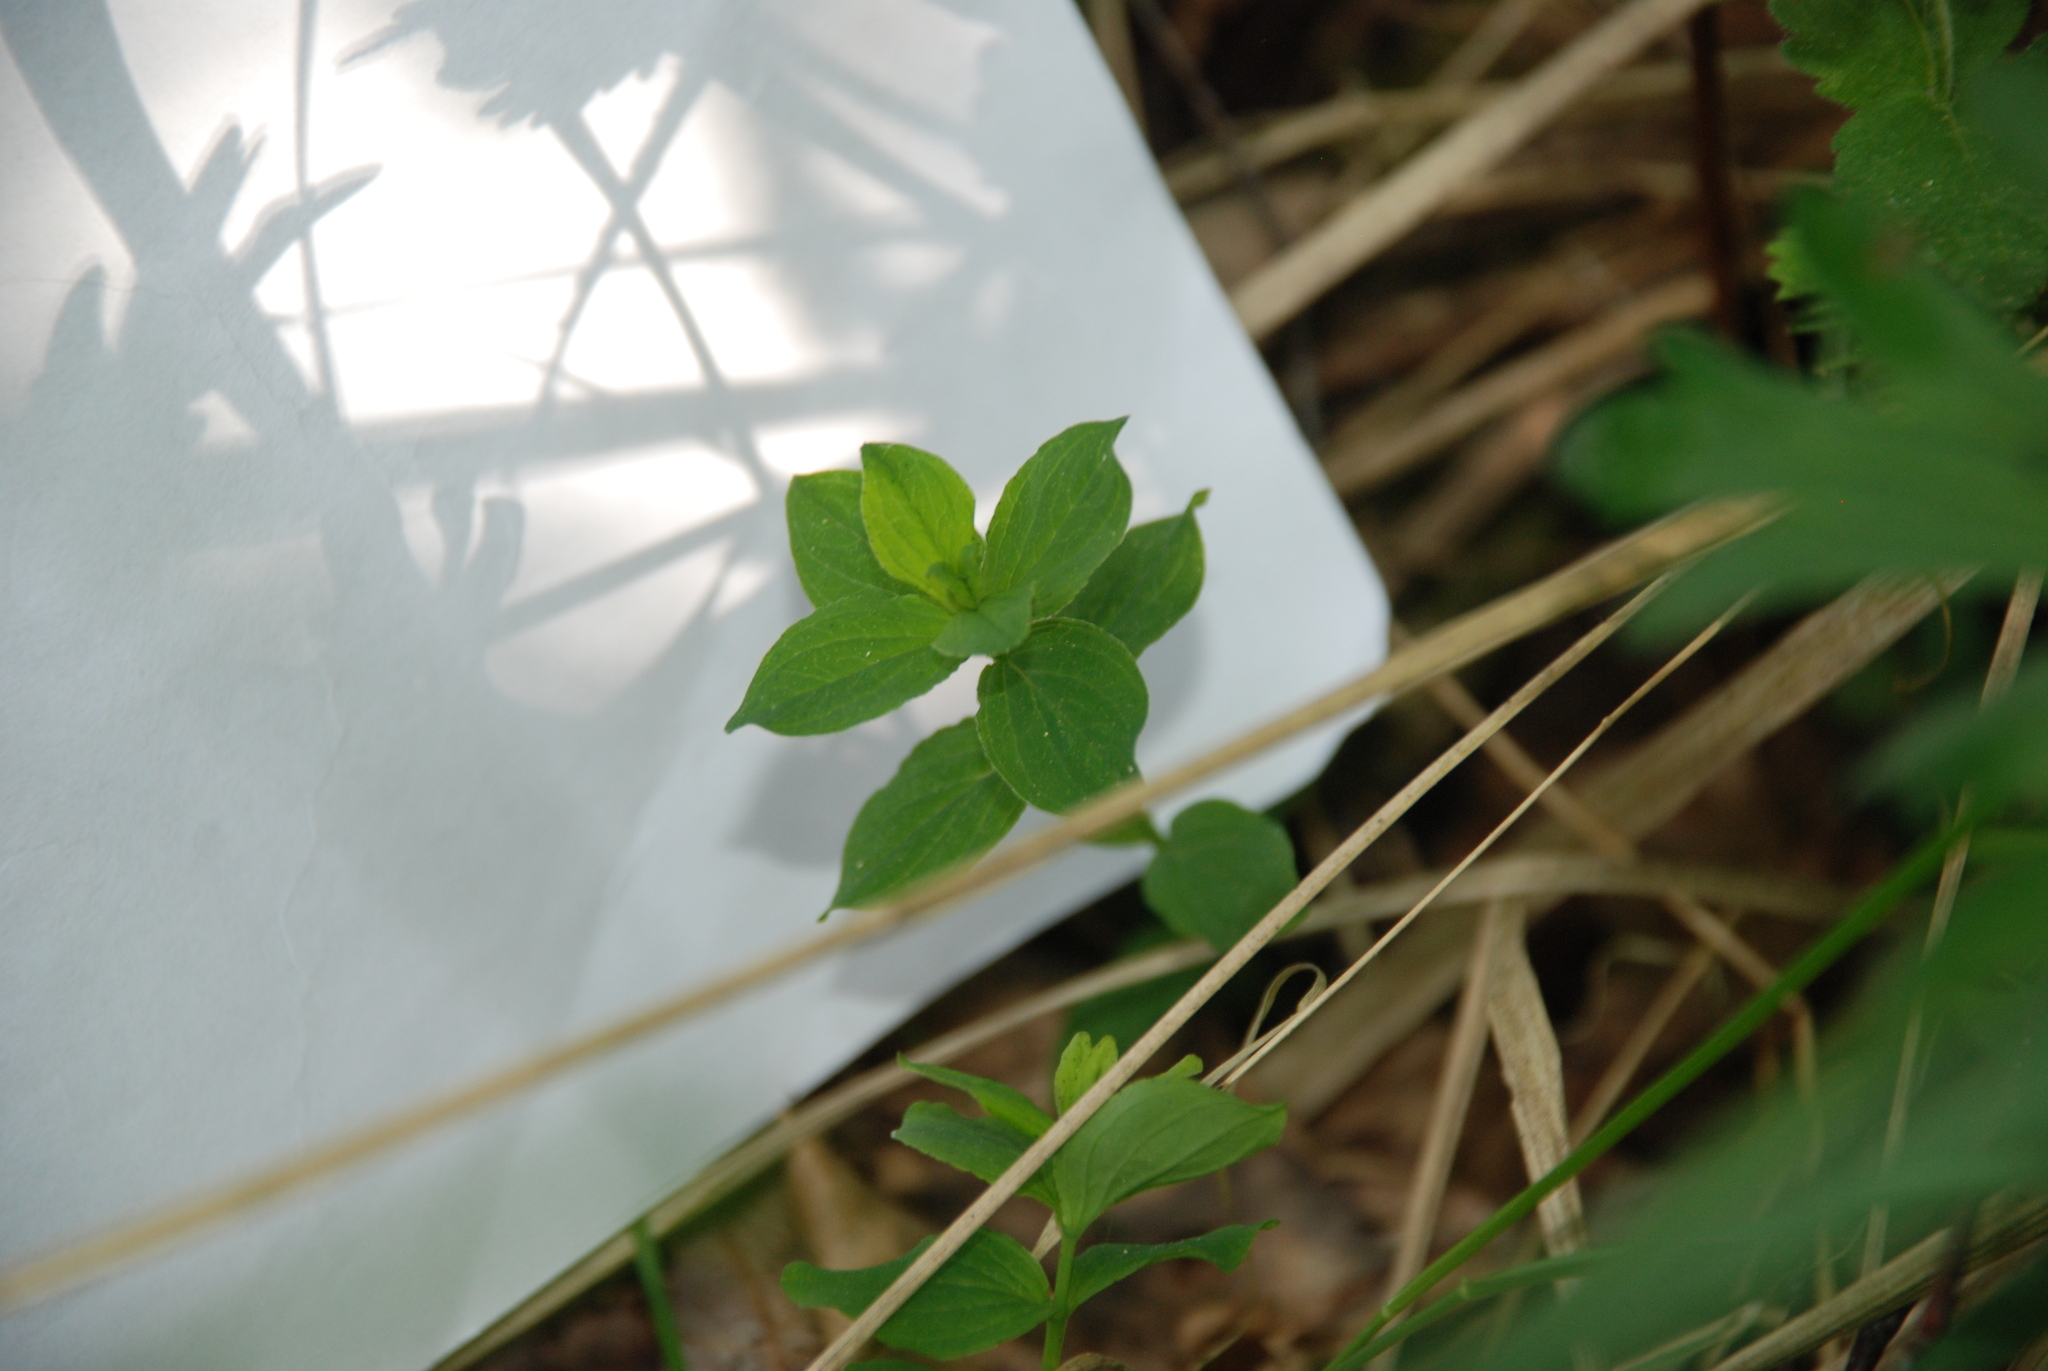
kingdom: Plantae
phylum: Tracheophyta
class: Magnoliopsida
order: Malpighiales
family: Hypericaceae
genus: Hypericum
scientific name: Hypericum maculatum
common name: Imperforate st. john's-wort
